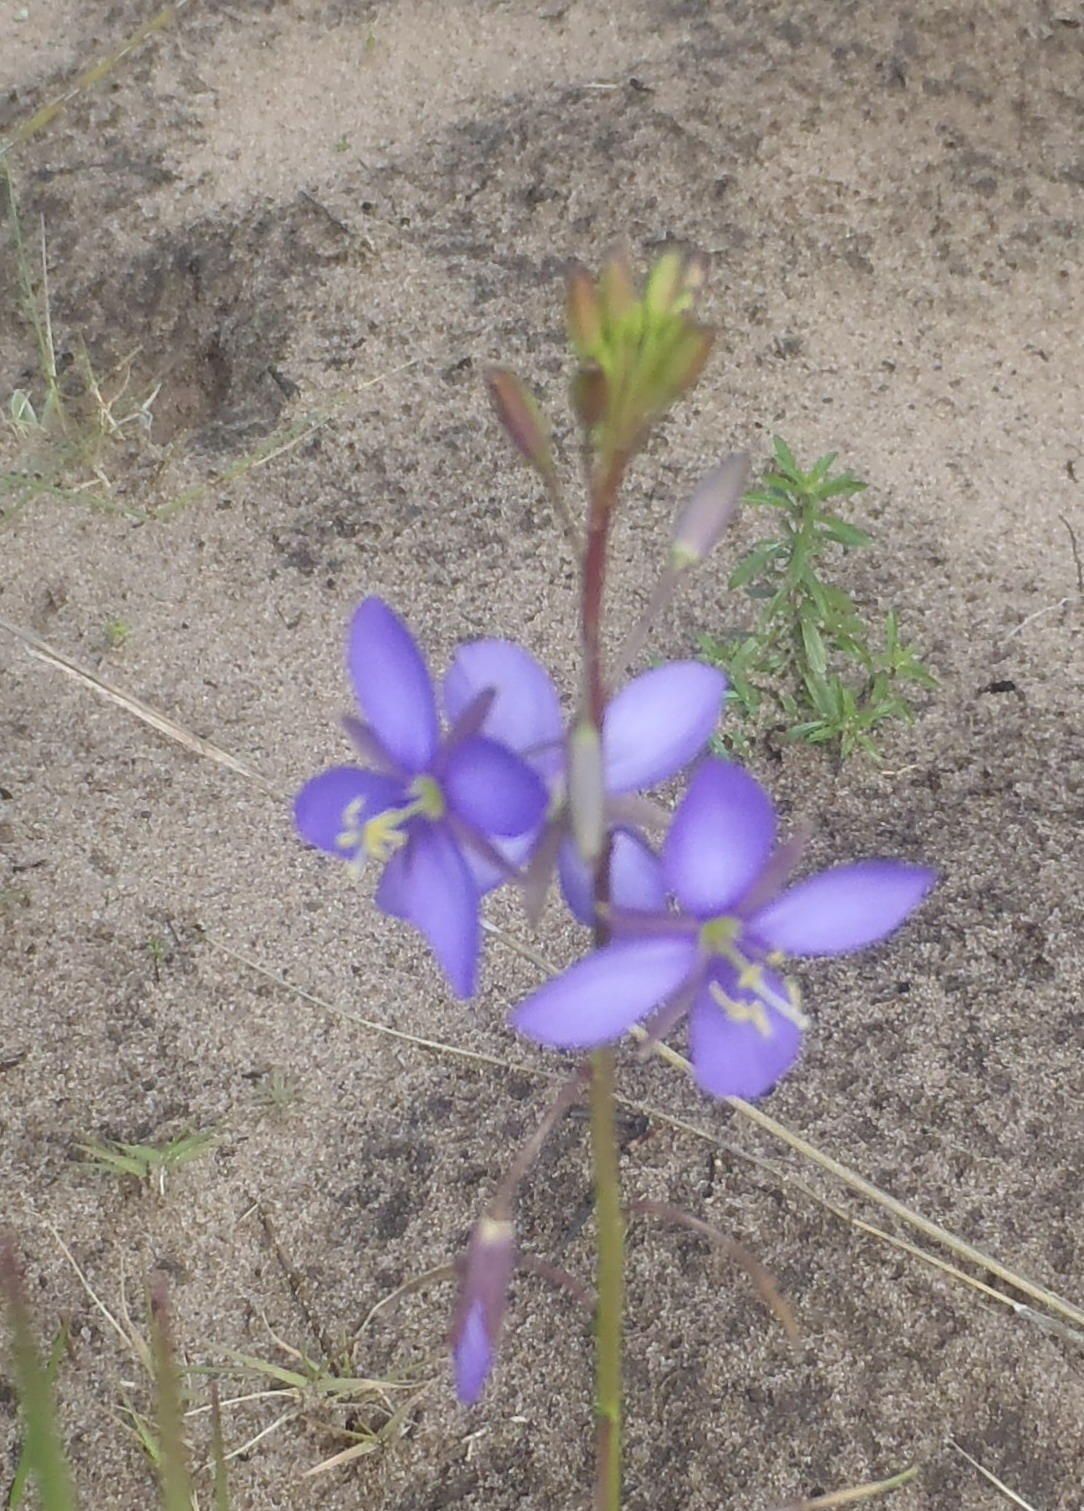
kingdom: Plantae
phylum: Tracheophyta
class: Magnoliopsida
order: Brassicales
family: Brassicaceae
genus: Heliophila
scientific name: Heliophila subulata
